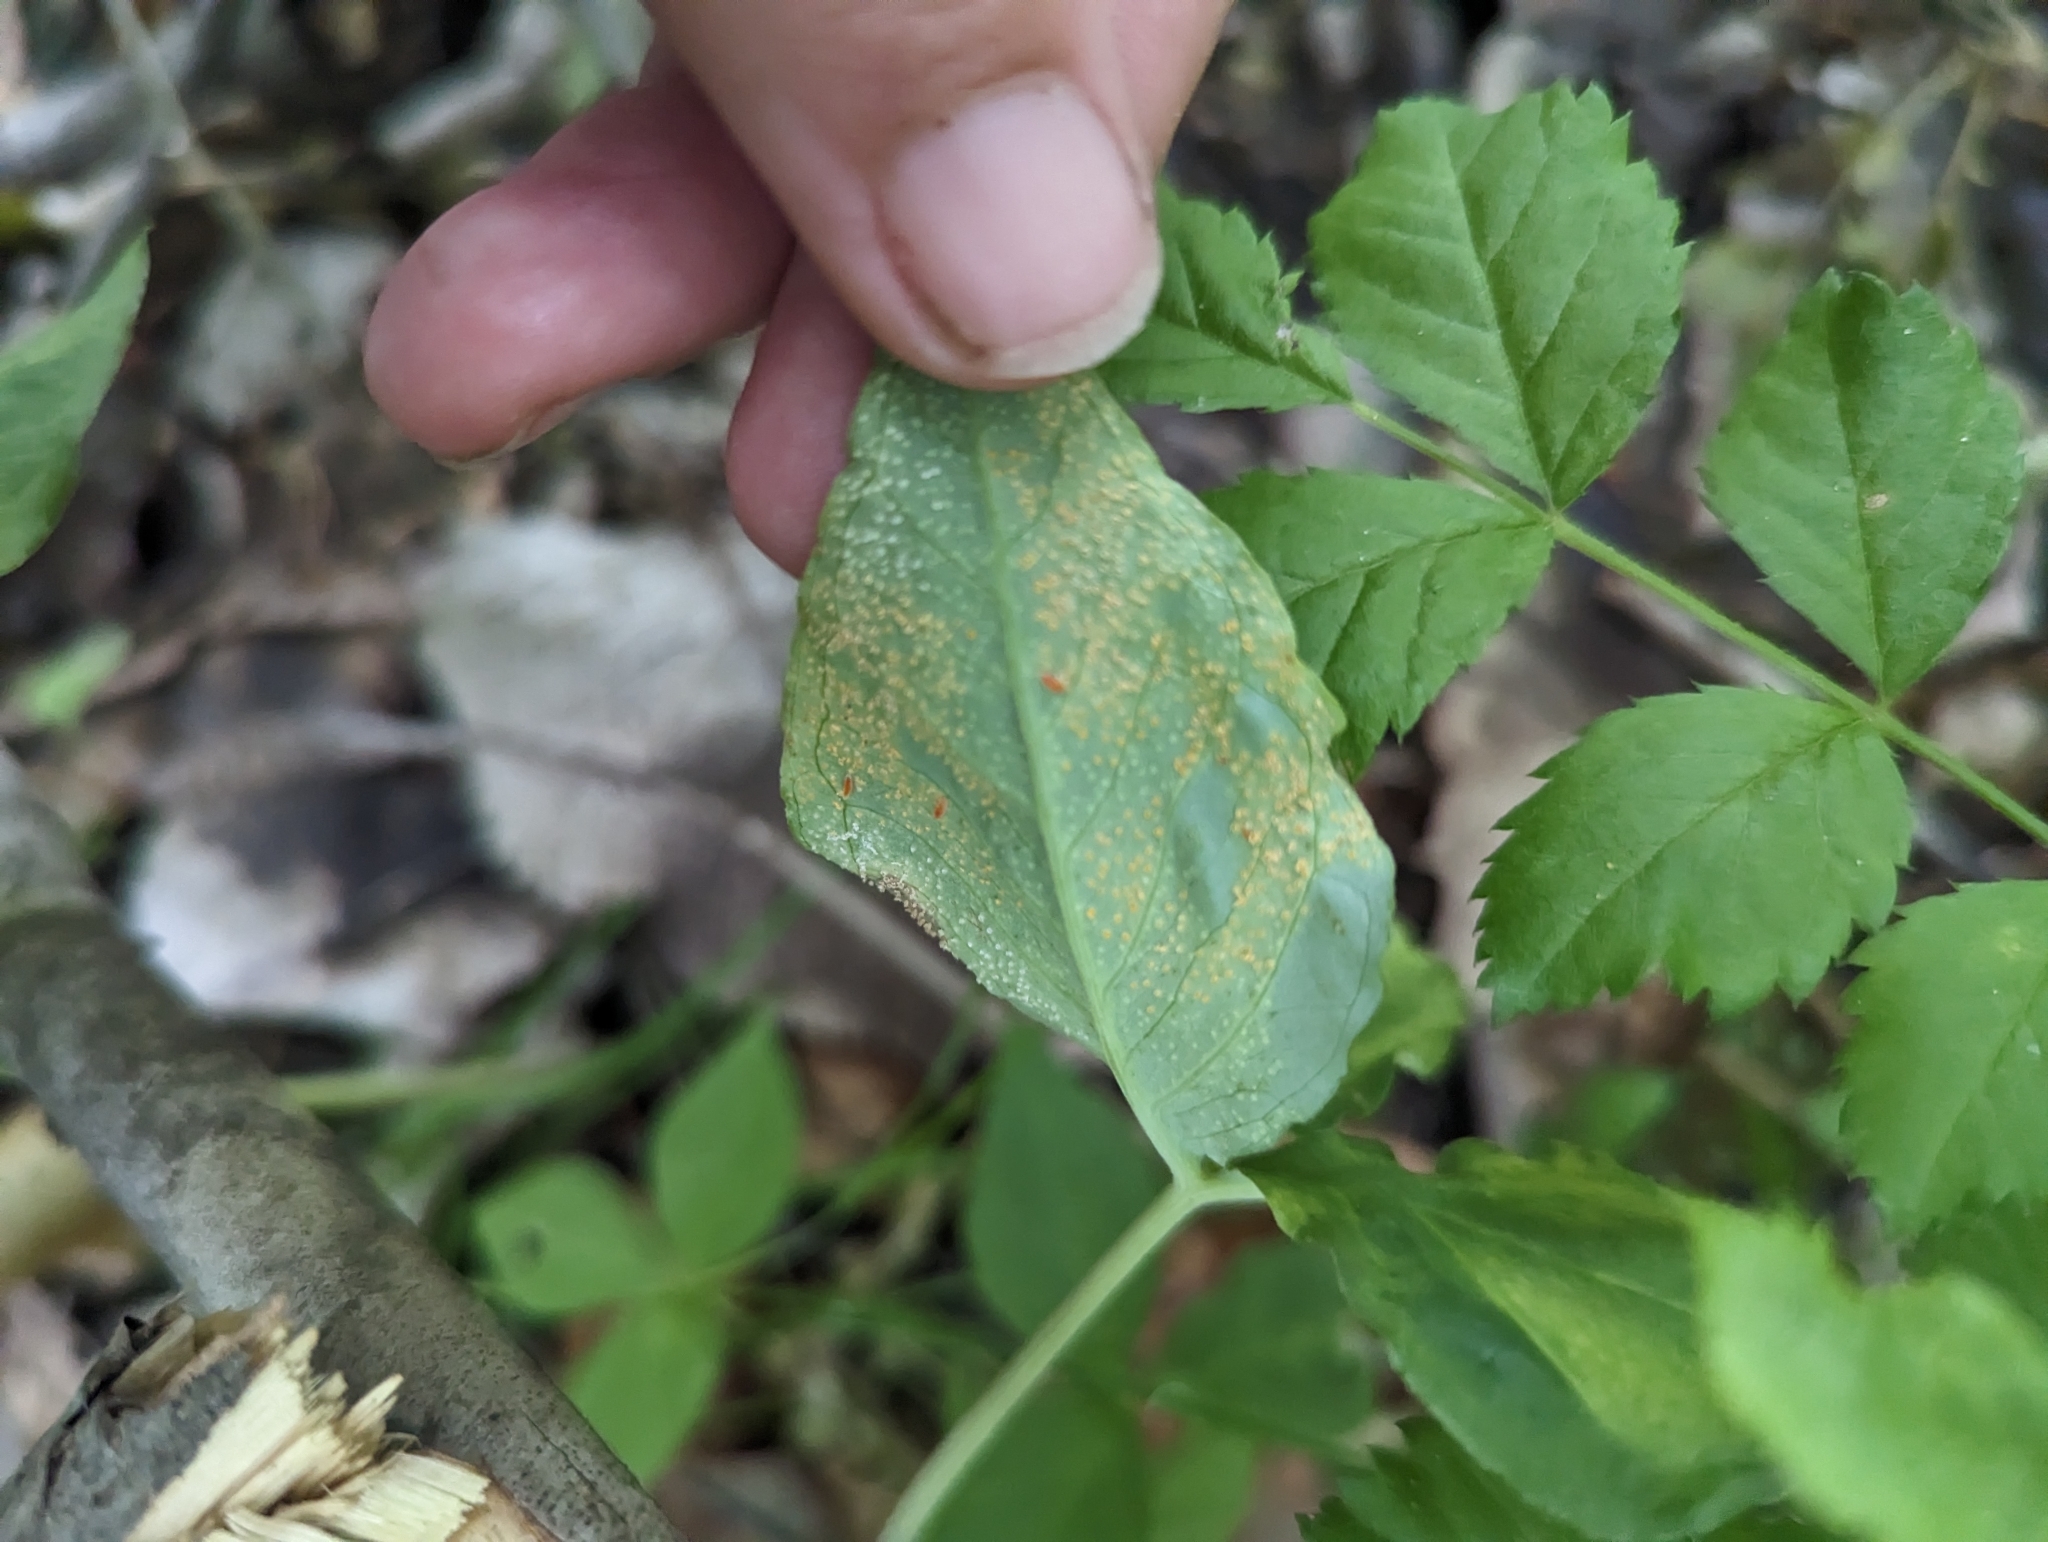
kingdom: Fungi
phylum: Basidiomycota
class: Pucciniomycetes
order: Pucciniales
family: Pucciniaceae
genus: Uromyces
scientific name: Uromyces ari-triphylli
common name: Jack-in-the-pulpit rust
